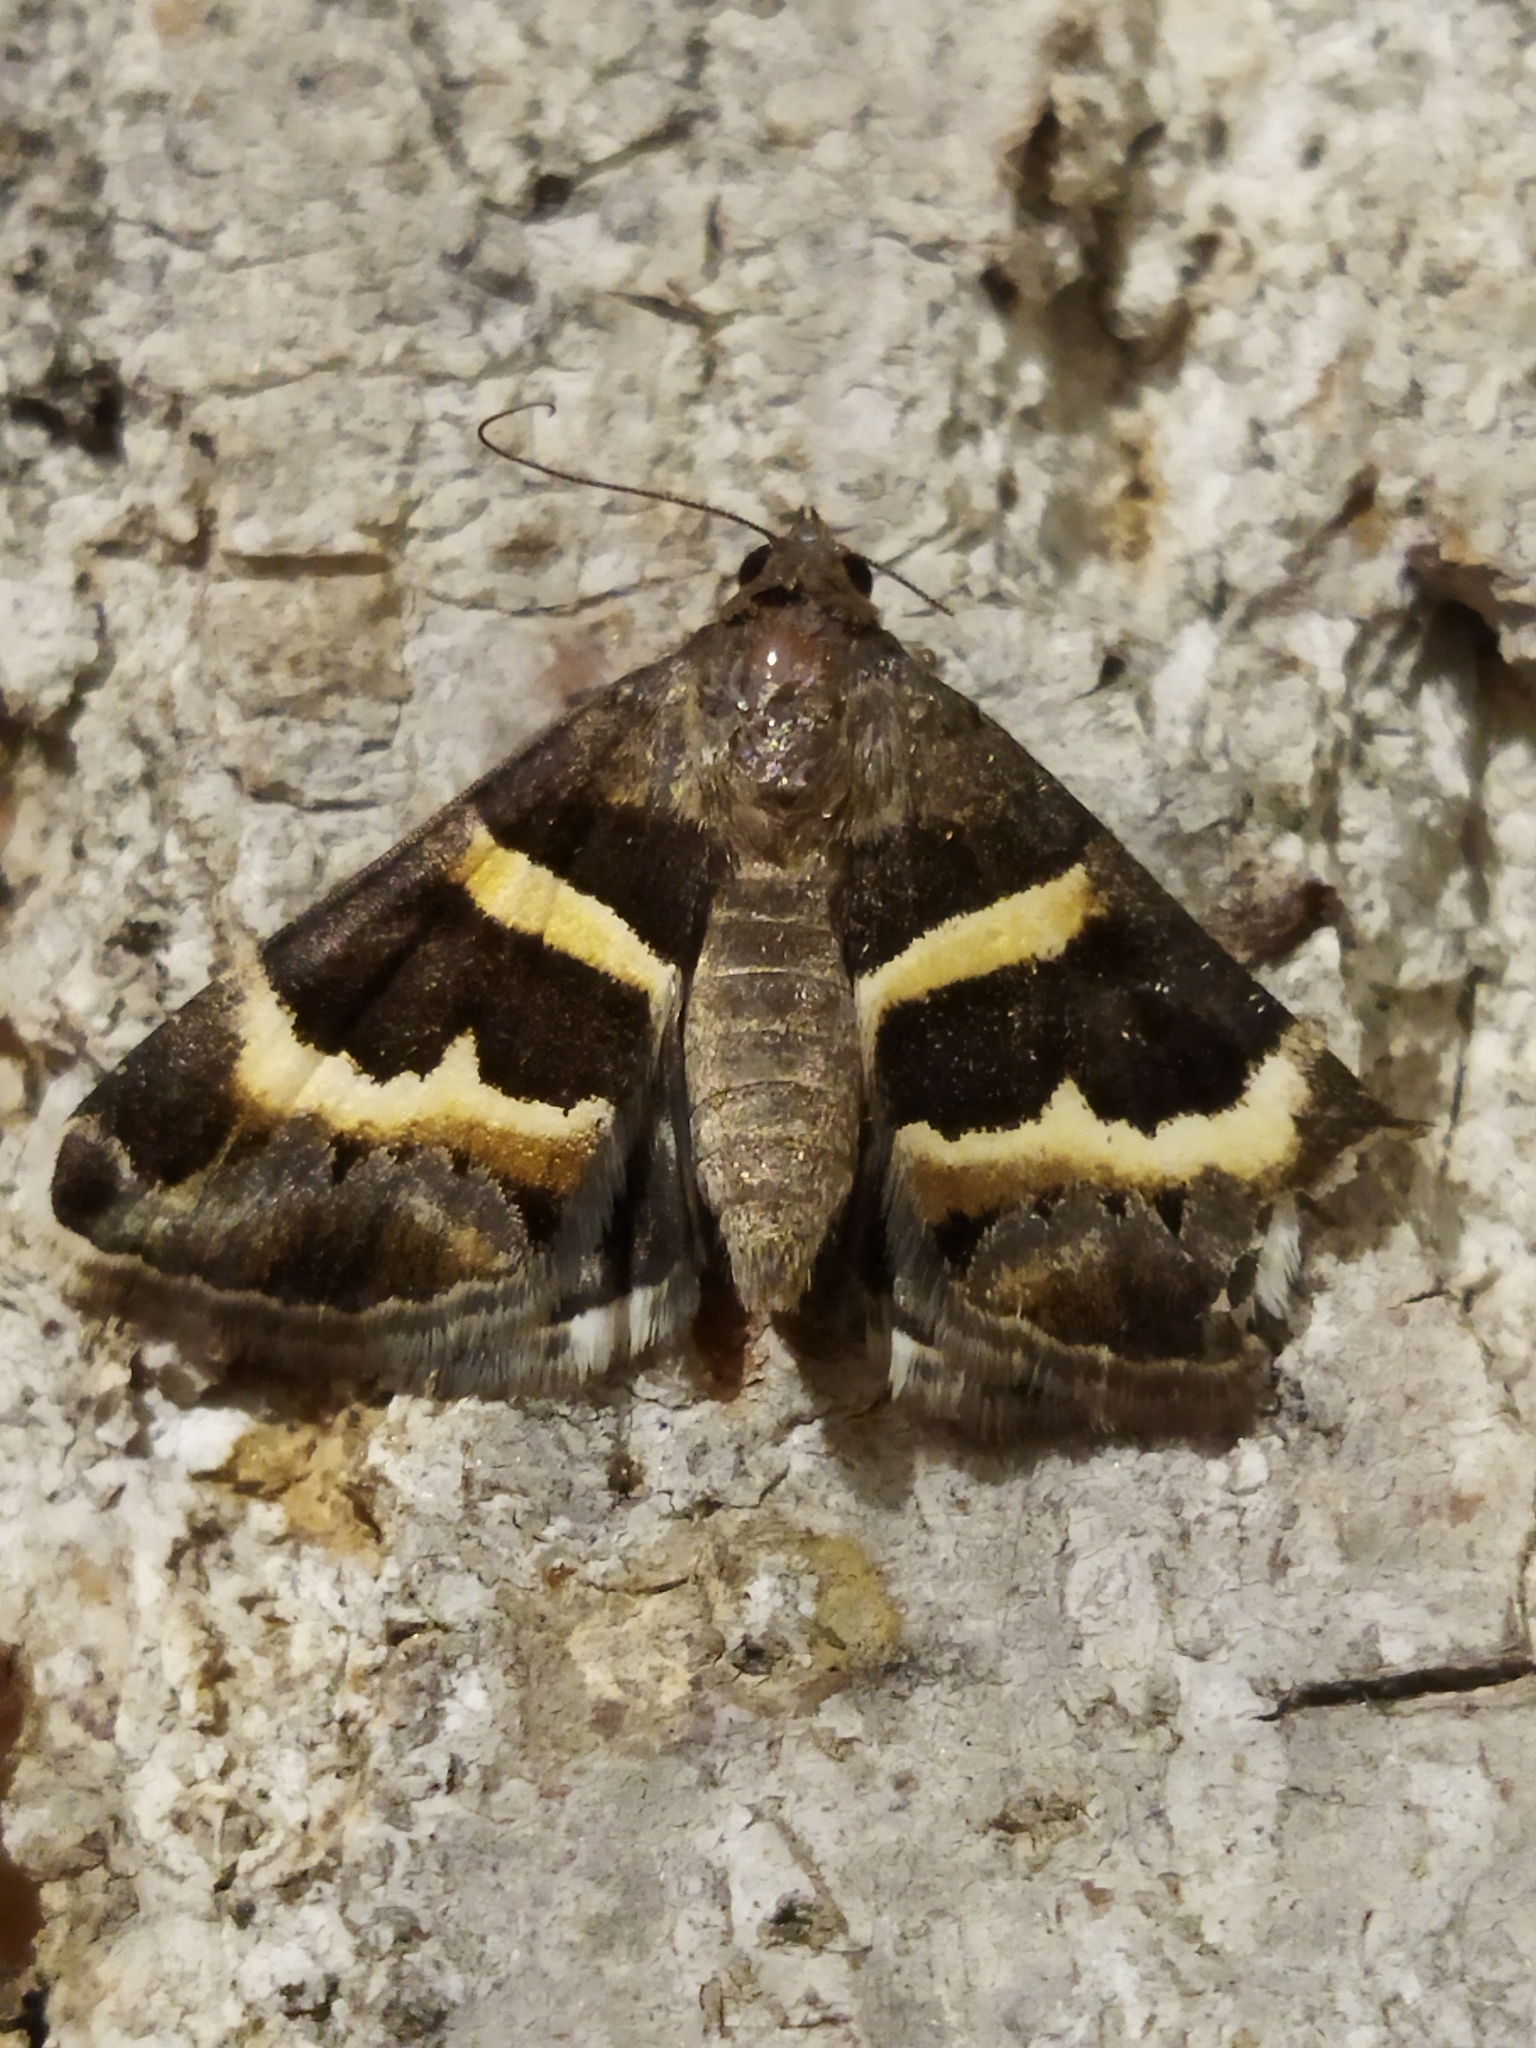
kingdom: Animalia
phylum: Arthropoda
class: Insecta
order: Lepidoptera
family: Erebidae
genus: Grammodes
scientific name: Grammodes stolida
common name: Geometrician
